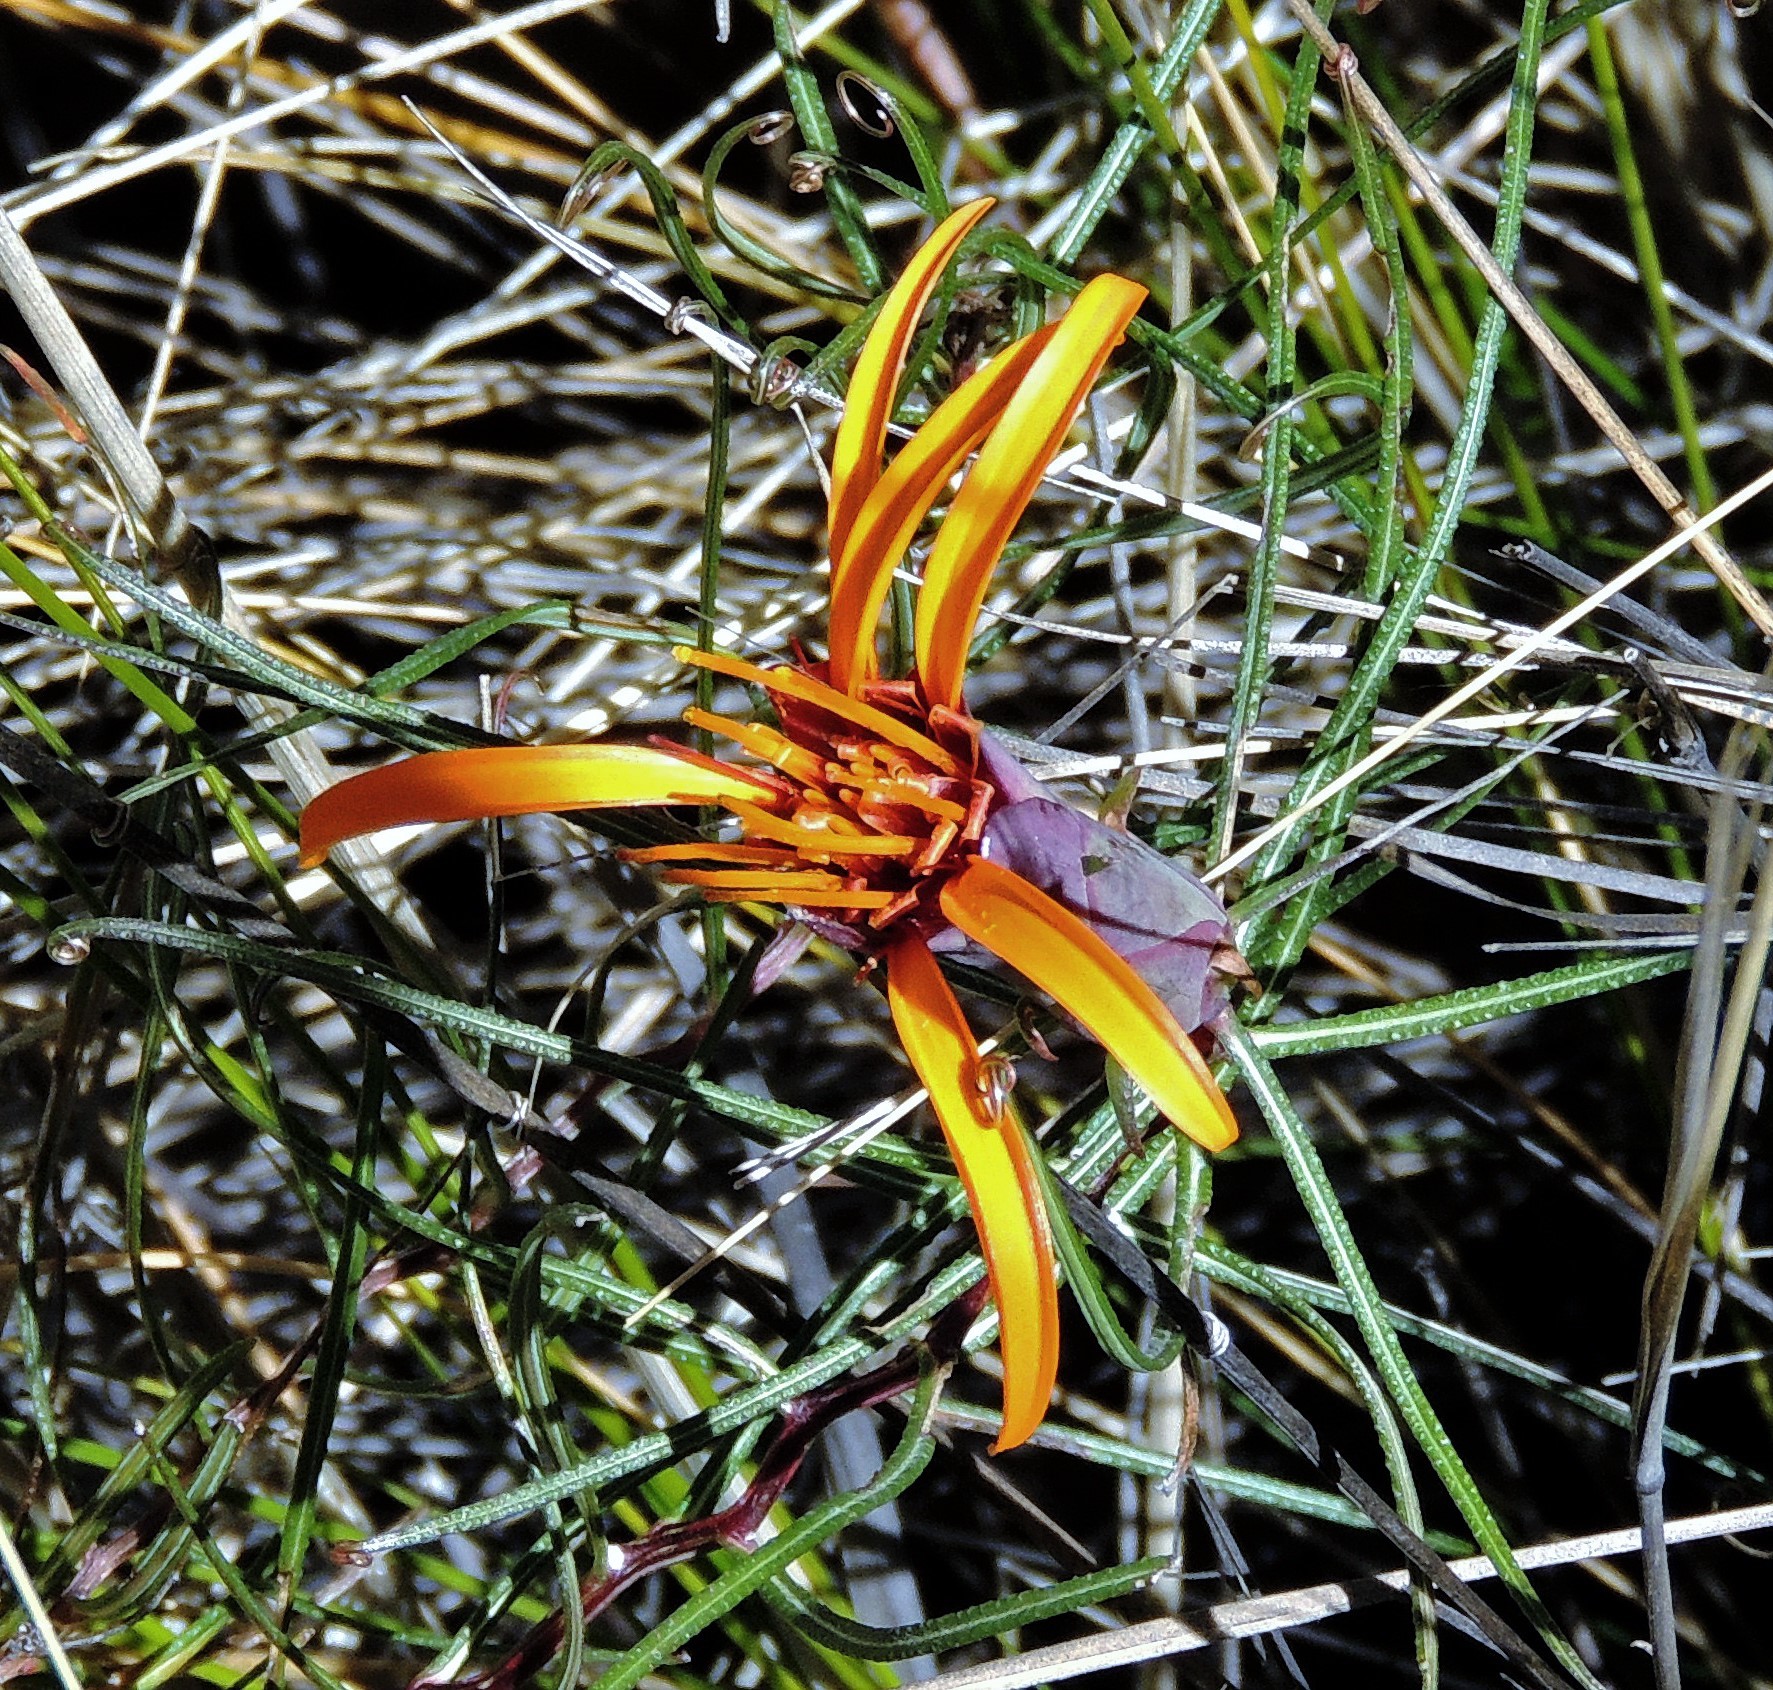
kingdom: Plantae
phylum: Tracheophyta
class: Magnoliopsida
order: Asterales
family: Asteraceae
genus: Mutisia
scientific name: Mutisia friesiana
